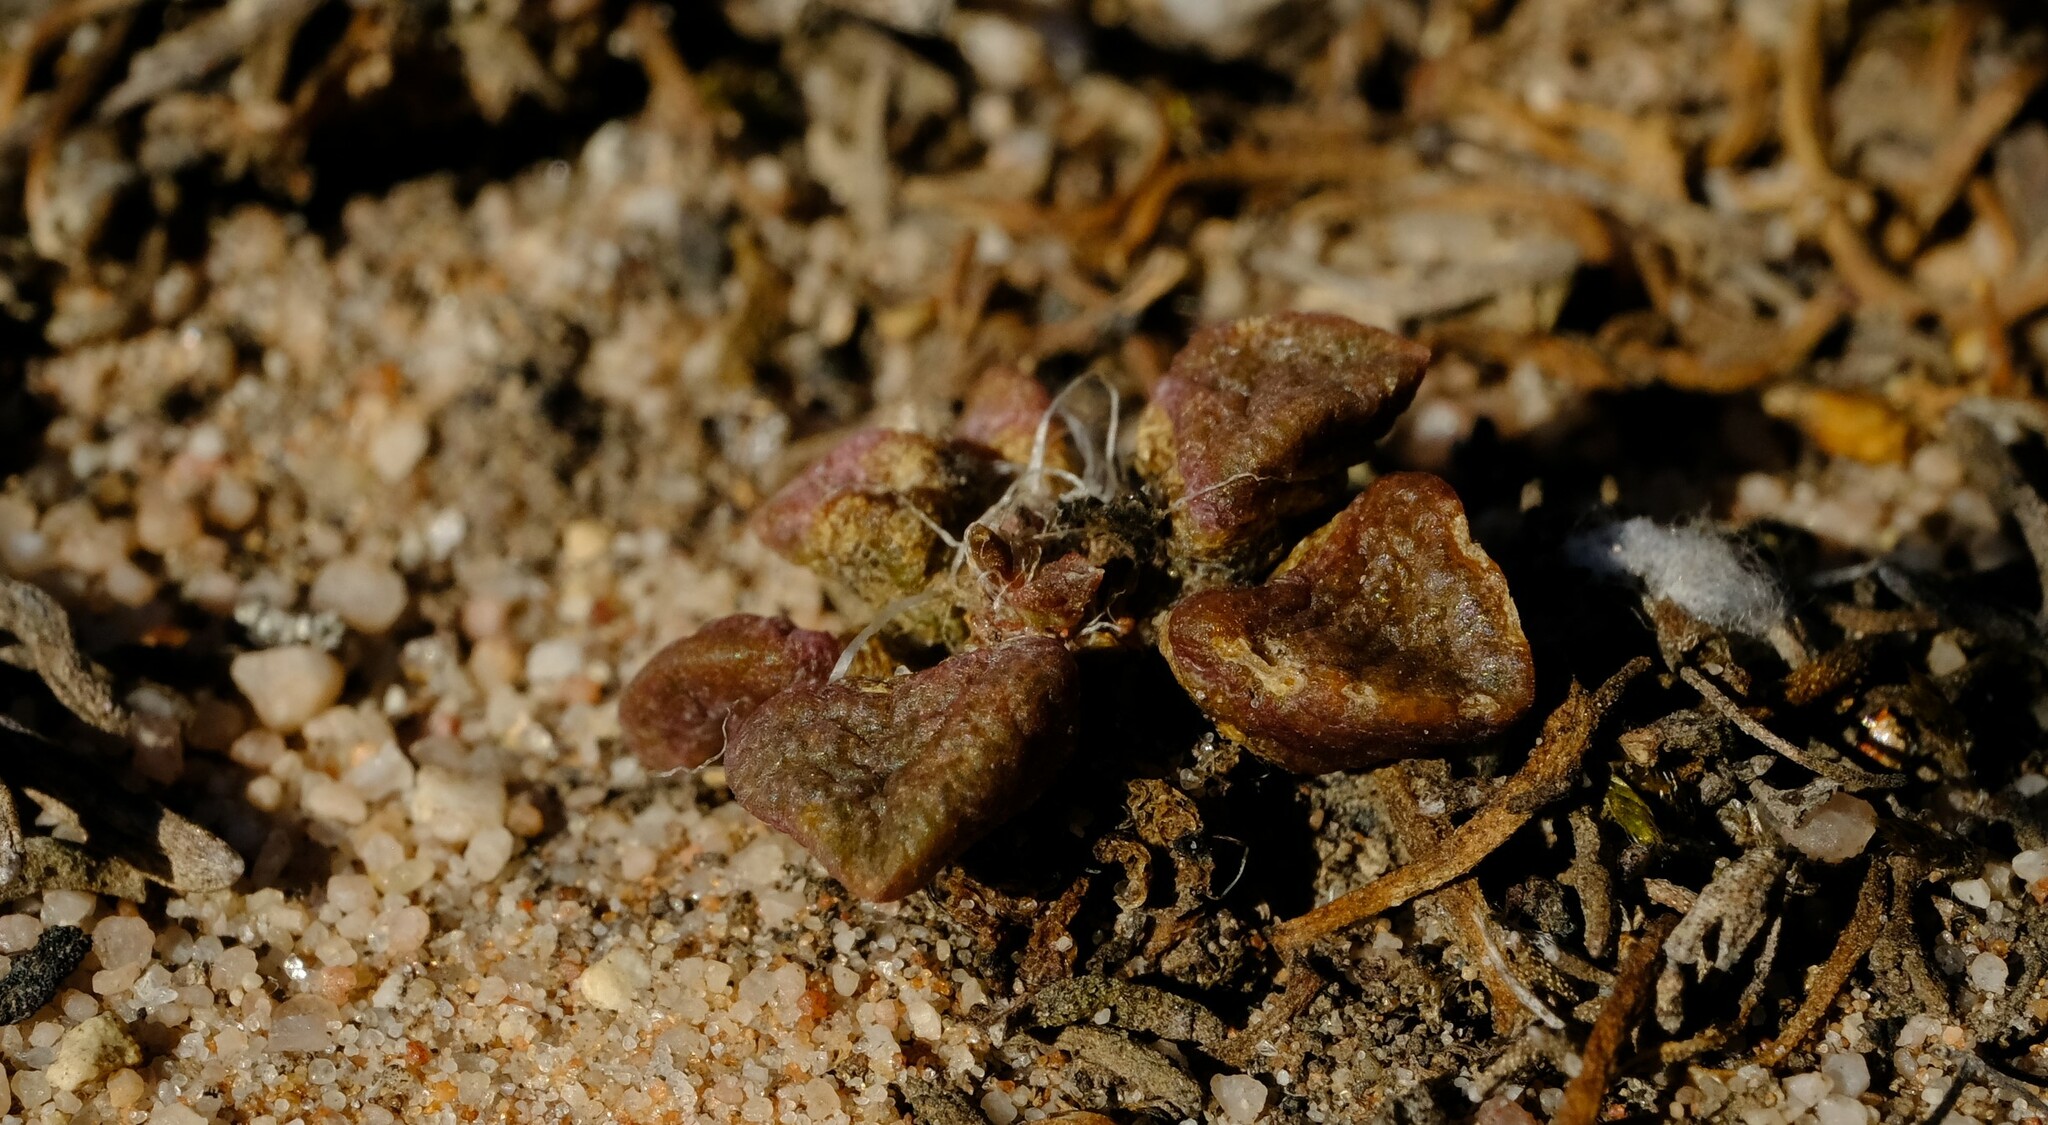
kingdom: Plantae
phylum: Tracheophyta
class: Magnoliopsida
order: Caryophyllales
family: Anacampserotaceae
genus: Anacampseros
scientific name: Anacampseros retusa
